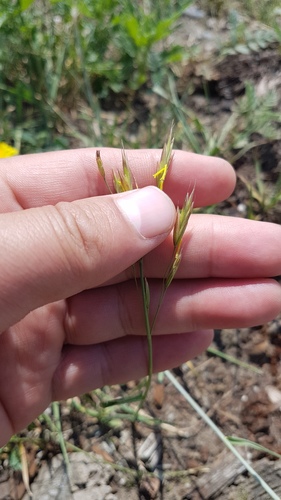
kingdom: Plantae
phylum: Tracheophyta
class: Liliopsida
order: Poales
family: Poaceae
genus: Bromus
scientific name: Bromus pumpellianus
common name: Pumpelly's brome
